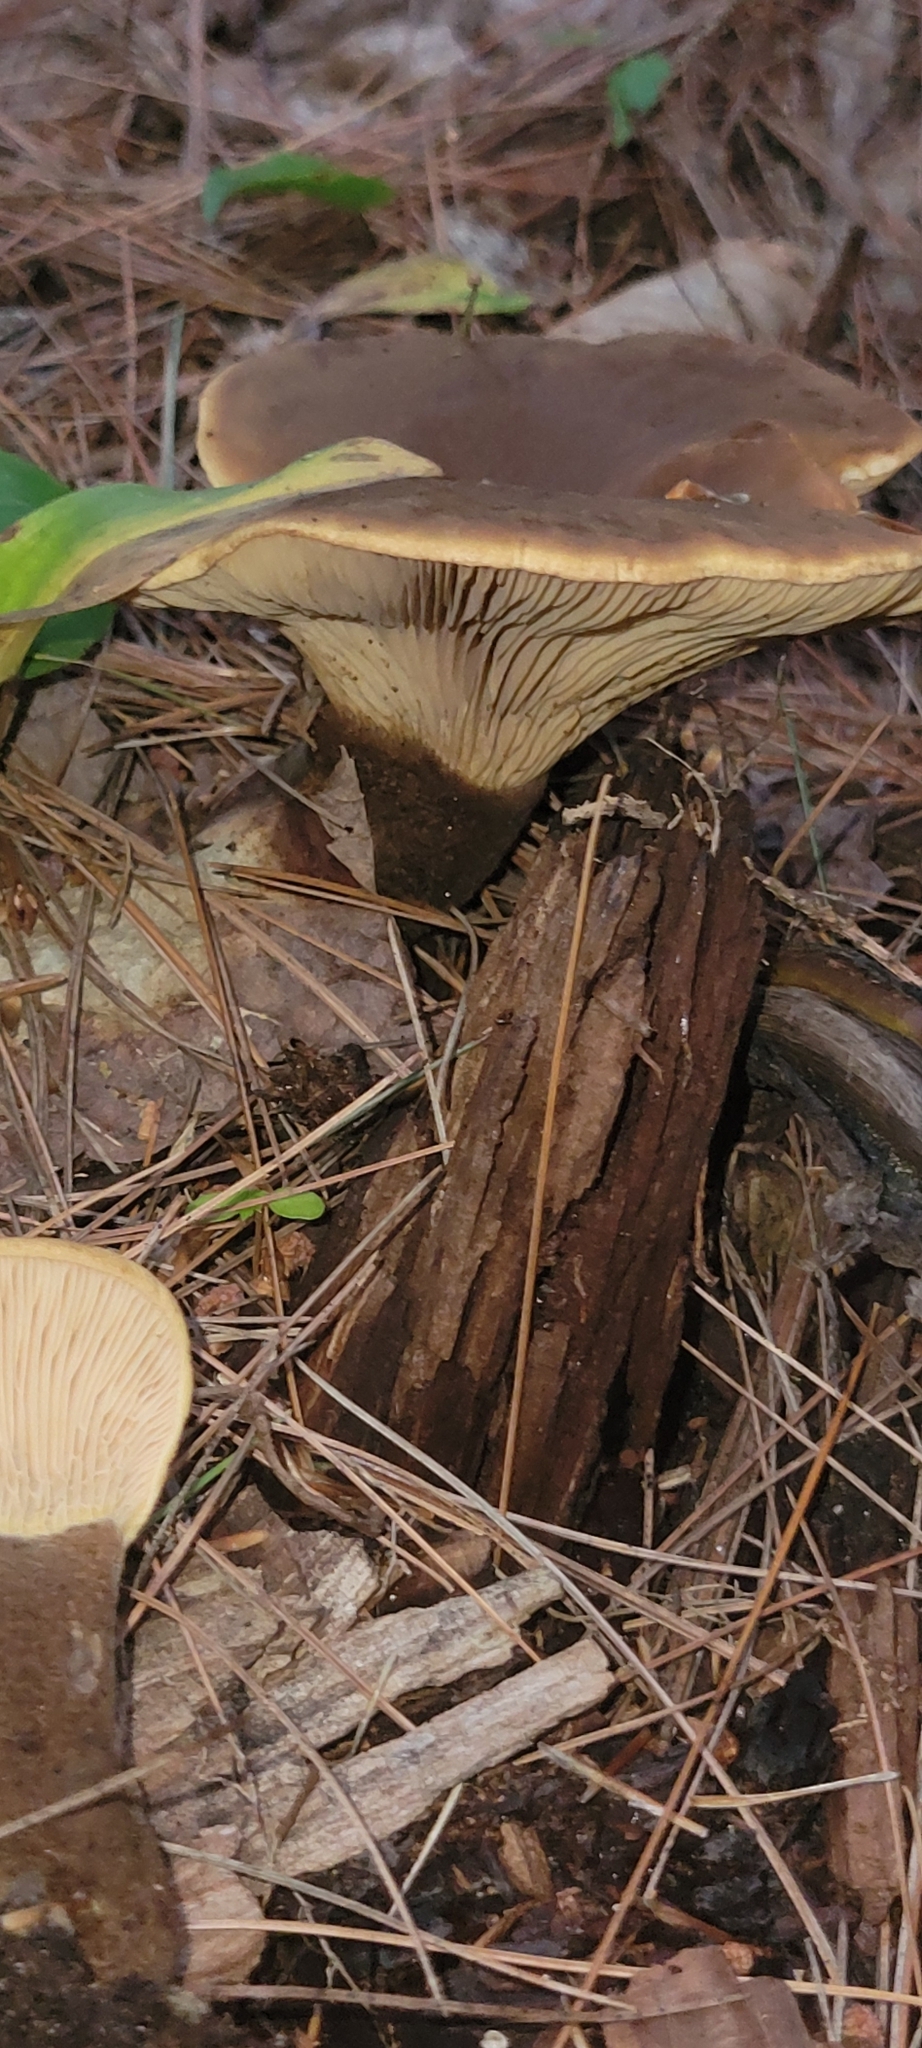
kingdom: Fungi
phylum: Basidiomycota
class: Agaricomycetes
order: Boletales
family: Tapinellaceae
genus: Tapinella
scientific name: Tapinella atrotomentosa
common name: Velvet rollrim
